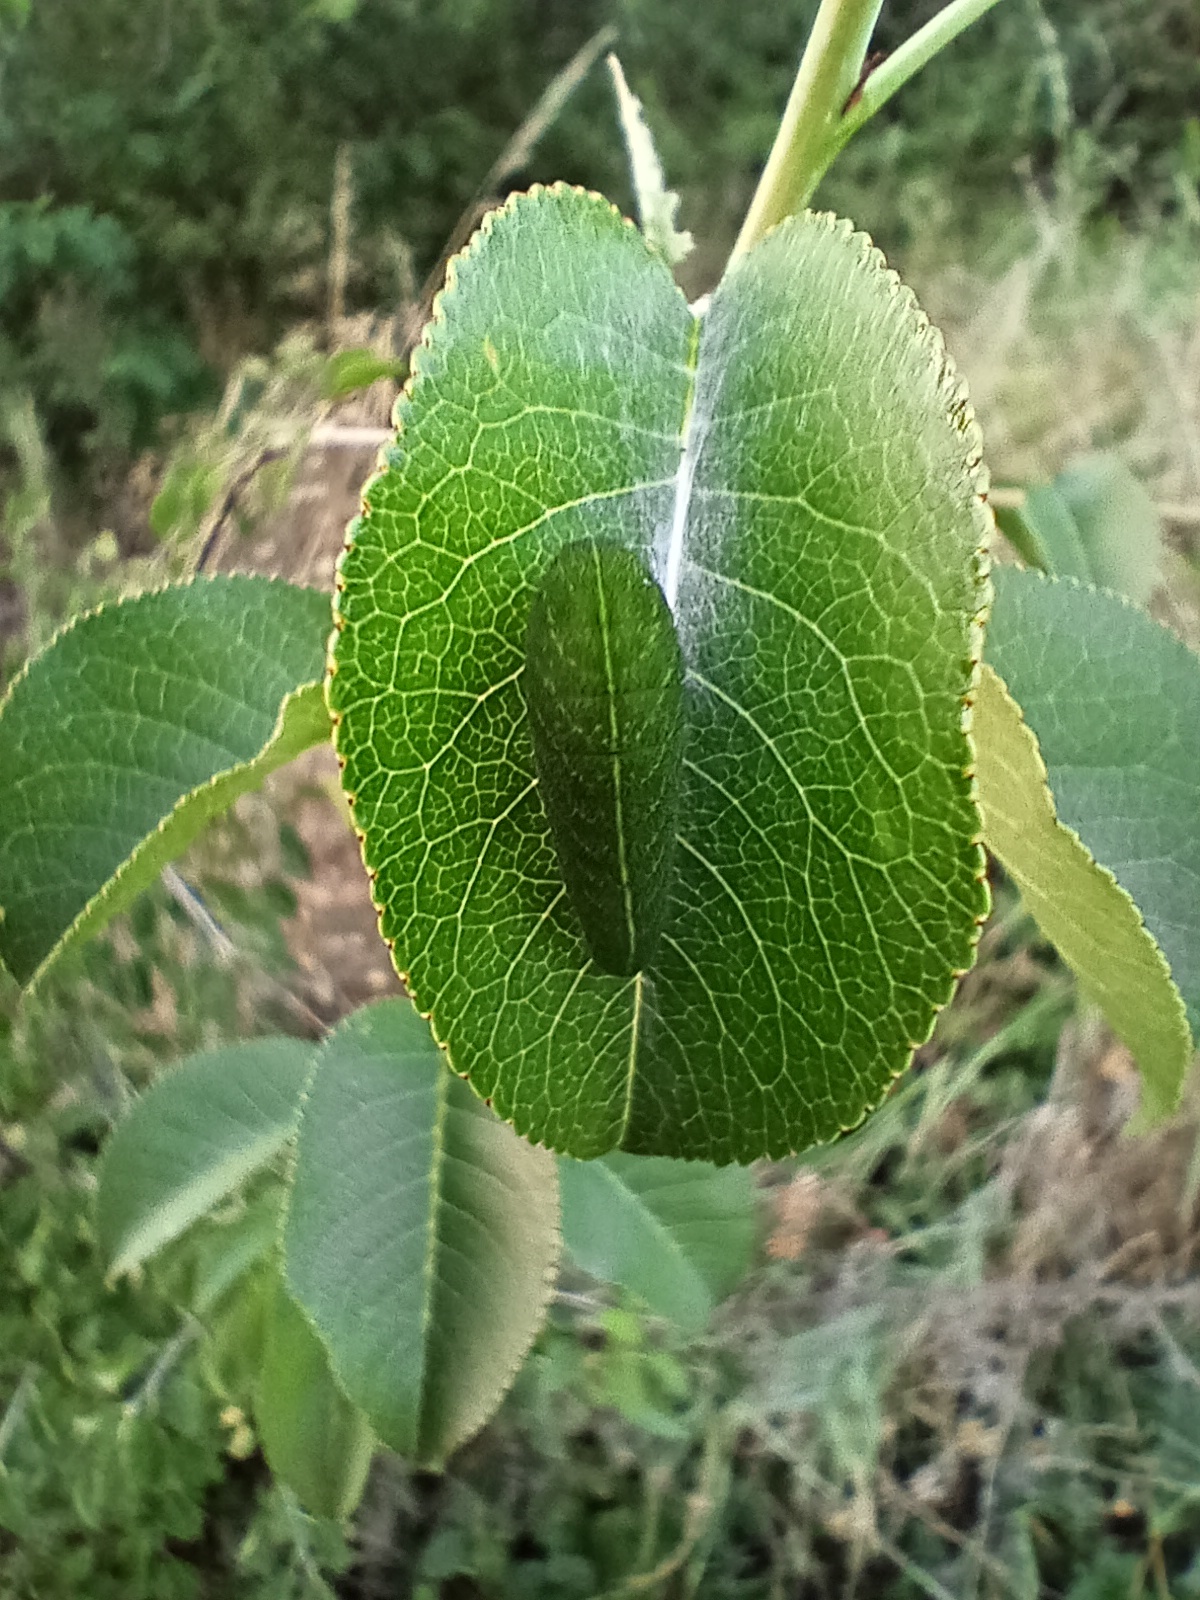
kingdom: Animalia
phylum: Arthropoda
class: Insecta
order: Lepidoptera
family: Papilionidae
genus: Iphiclides
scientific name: Iphiclides podalirius
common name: Scarce swallowtail
